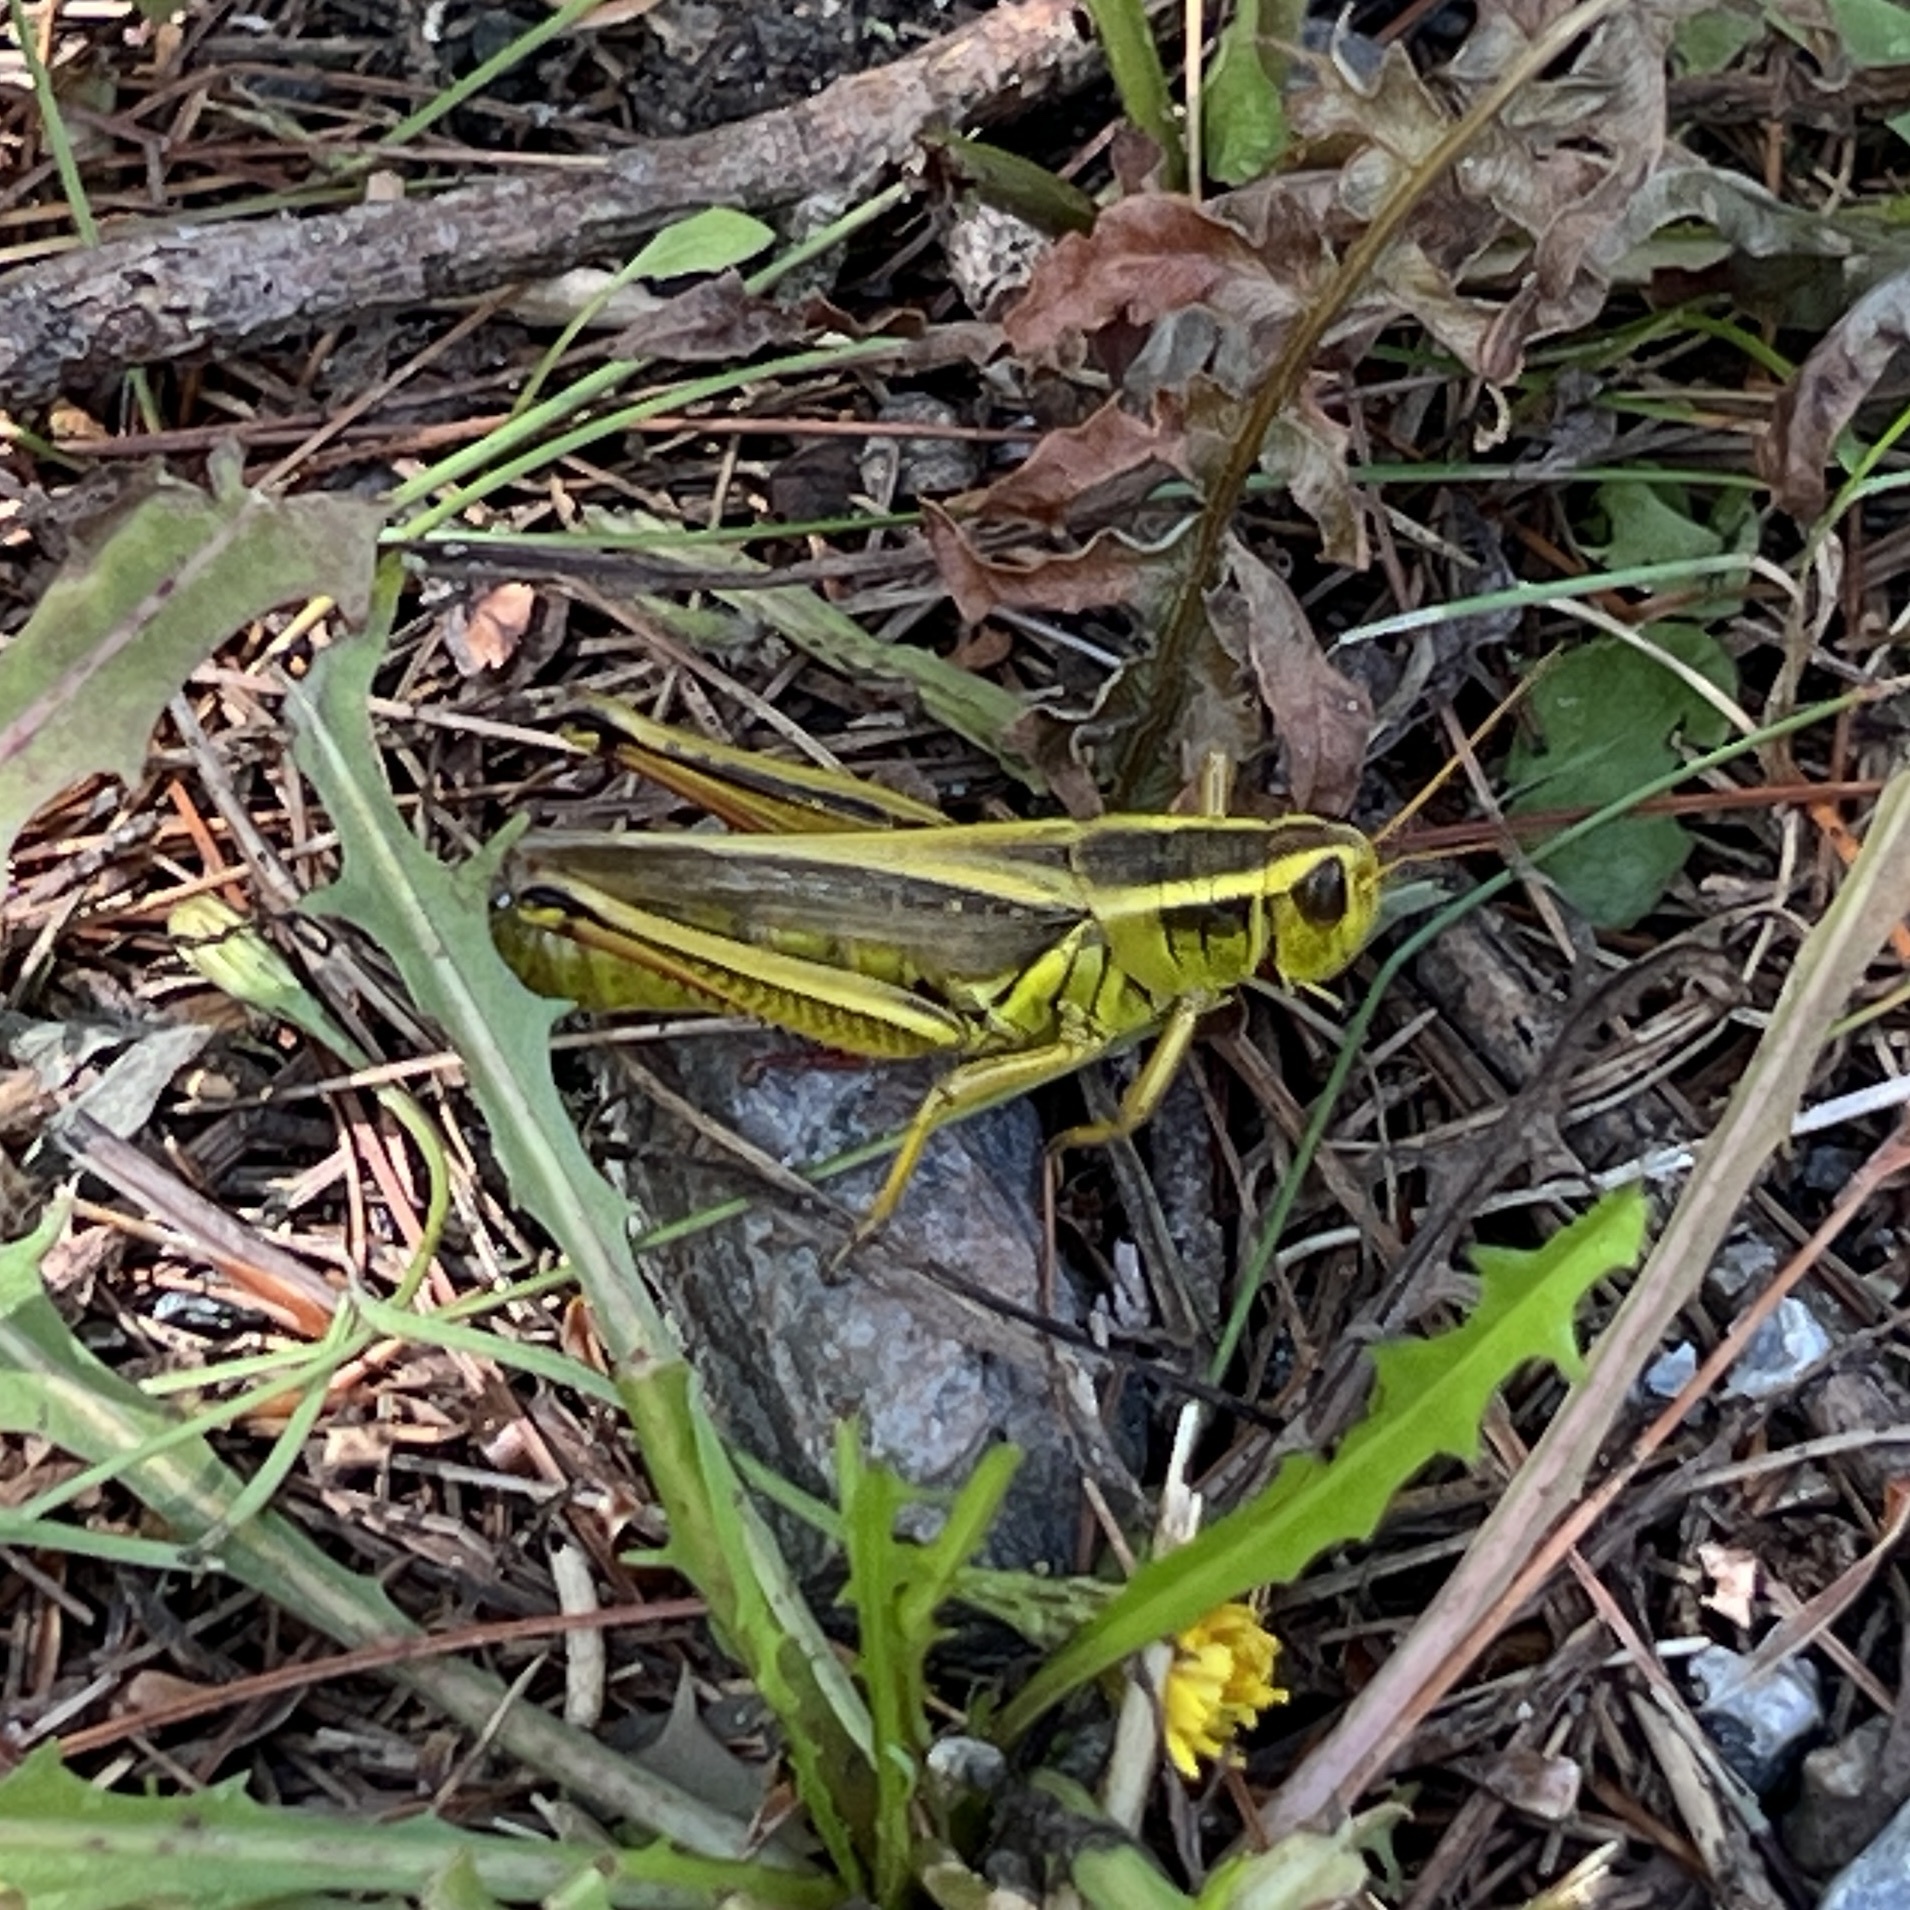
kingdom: Animalia
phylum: Arthropoda
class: Insecta
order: Orthoptera
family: Acrididae
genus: Melanoplus
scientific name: Melanoplus bivittatus
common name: Two-striped grasshopper
